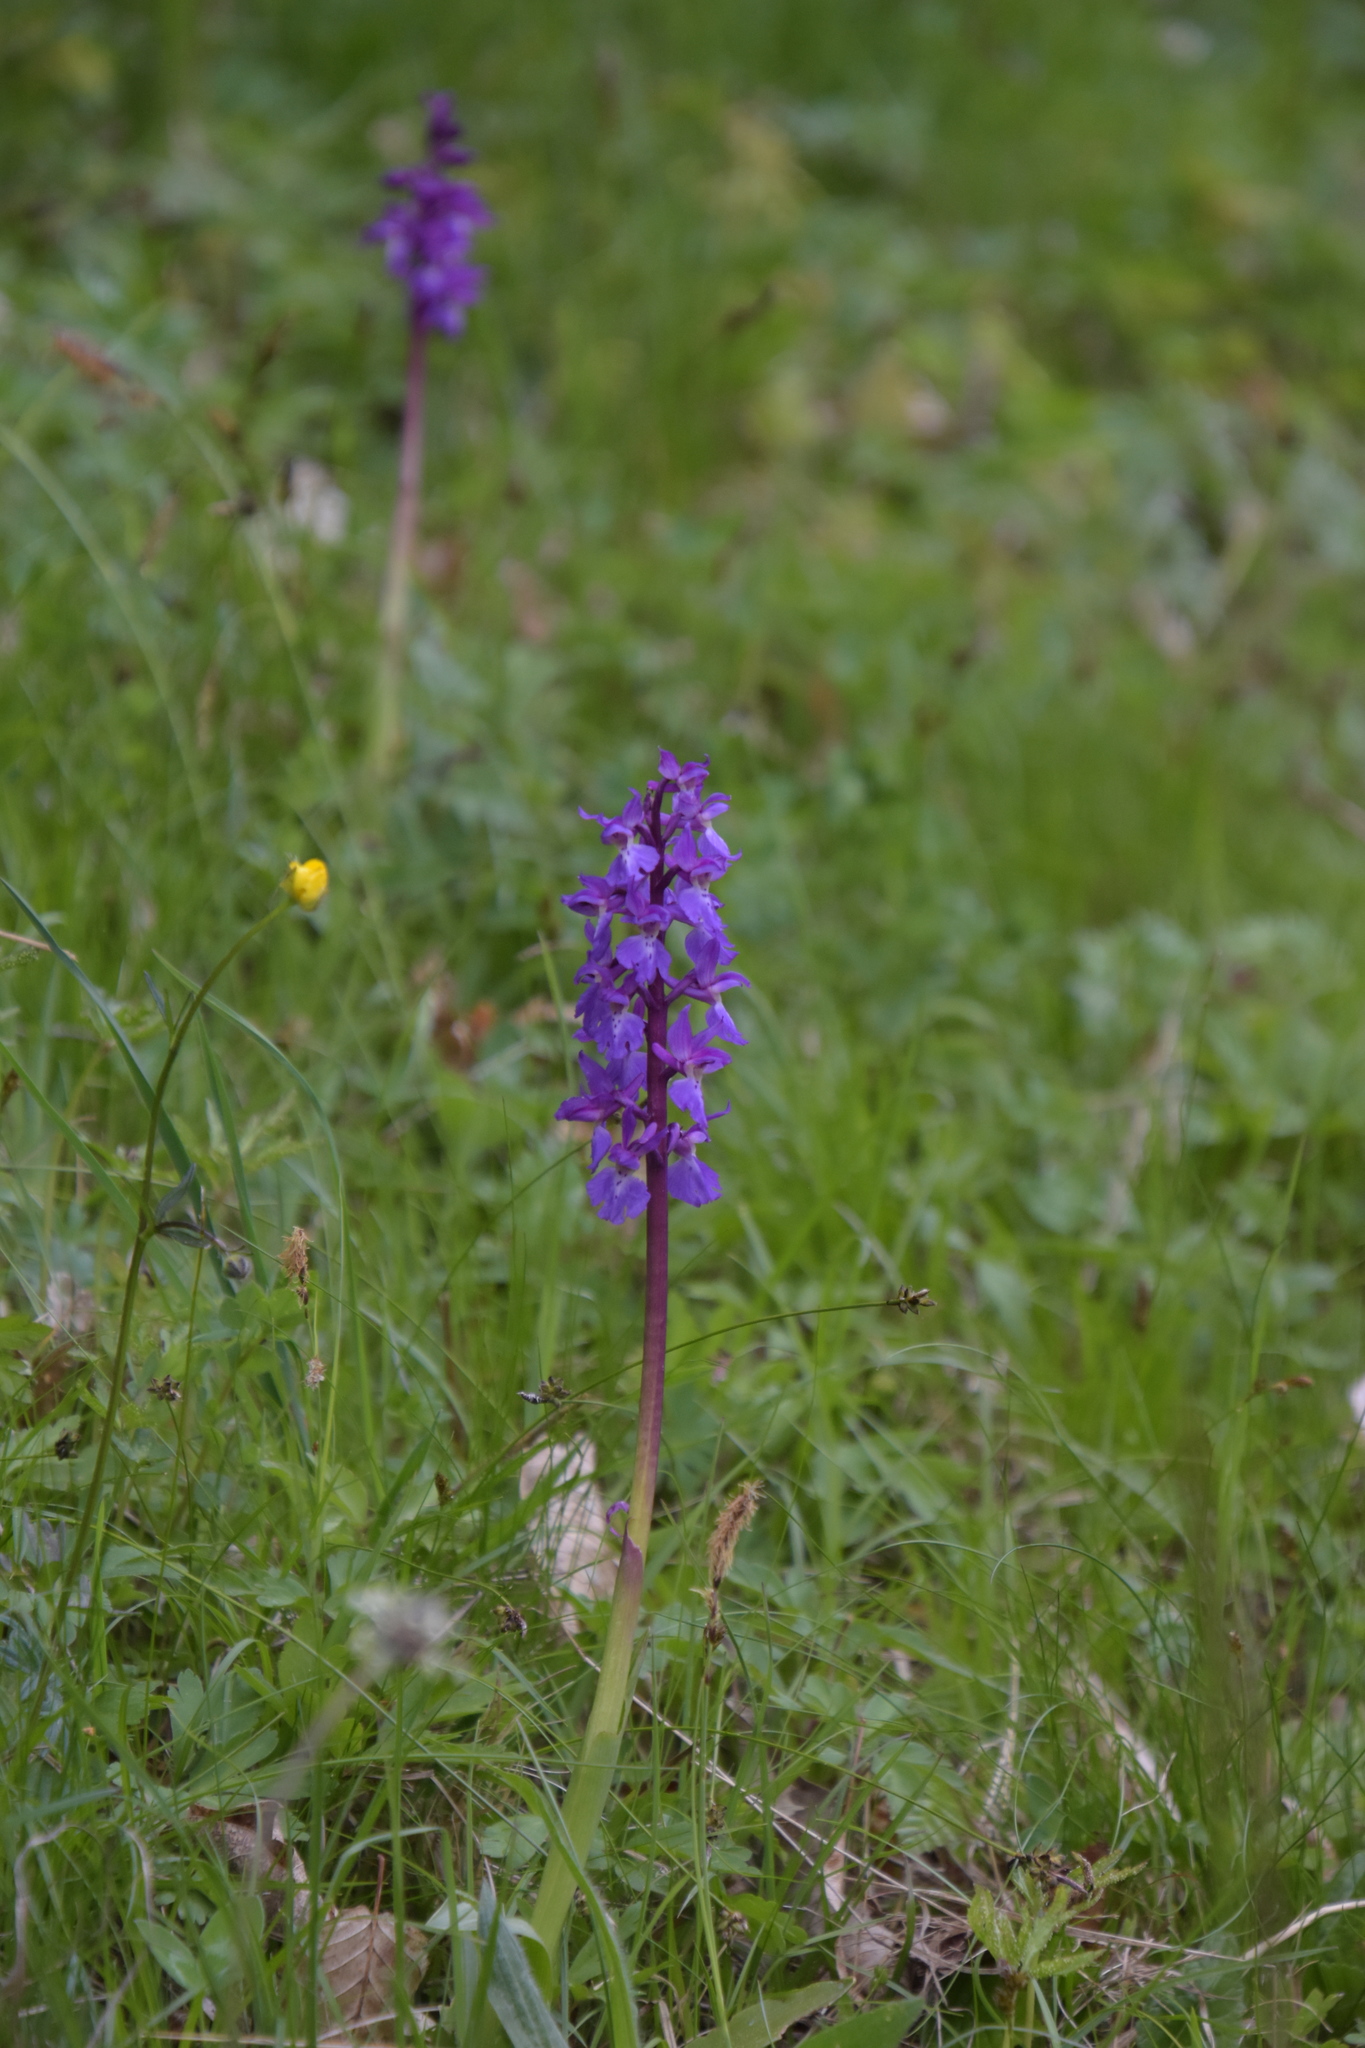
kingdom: Plantae
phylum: Tracheophyta
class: Liliopsida
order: Asparagales
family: Orchidaceae
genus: Orchis
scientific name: Orchis mascula
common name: Early-purple orchid
